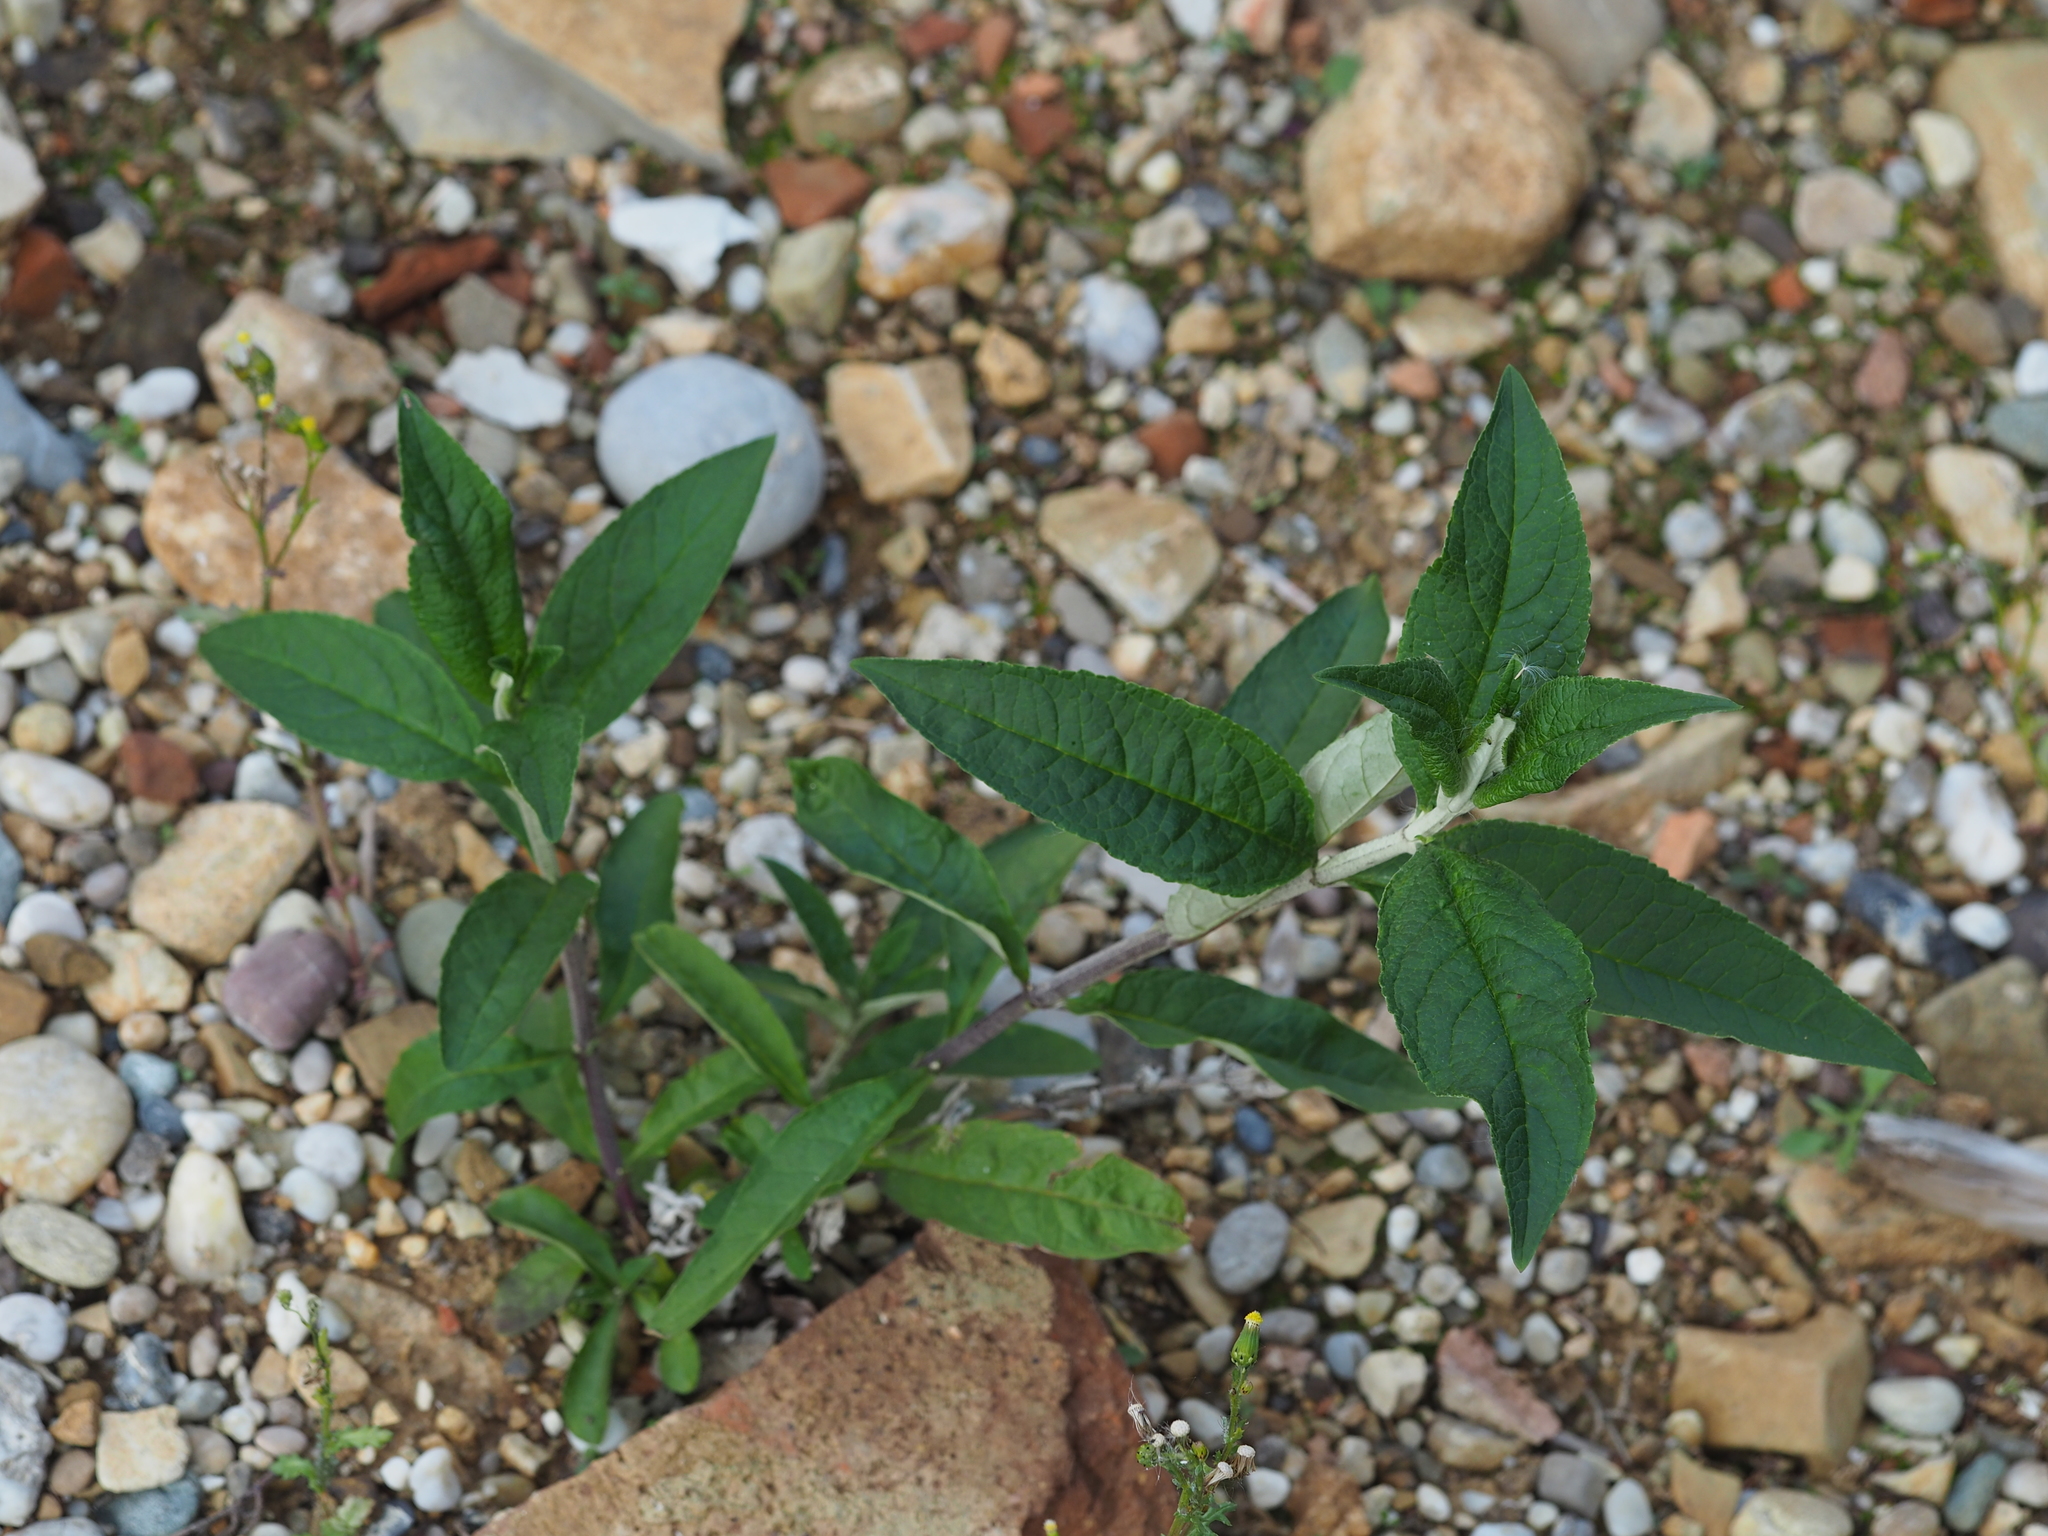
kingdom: Plantae
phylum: Tracheophyta
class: Magnoliopsida
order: Lamiales
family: Scrophulariaceae
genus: Buddleja
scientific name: Buddleja davidii
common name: Butterfly-bush
